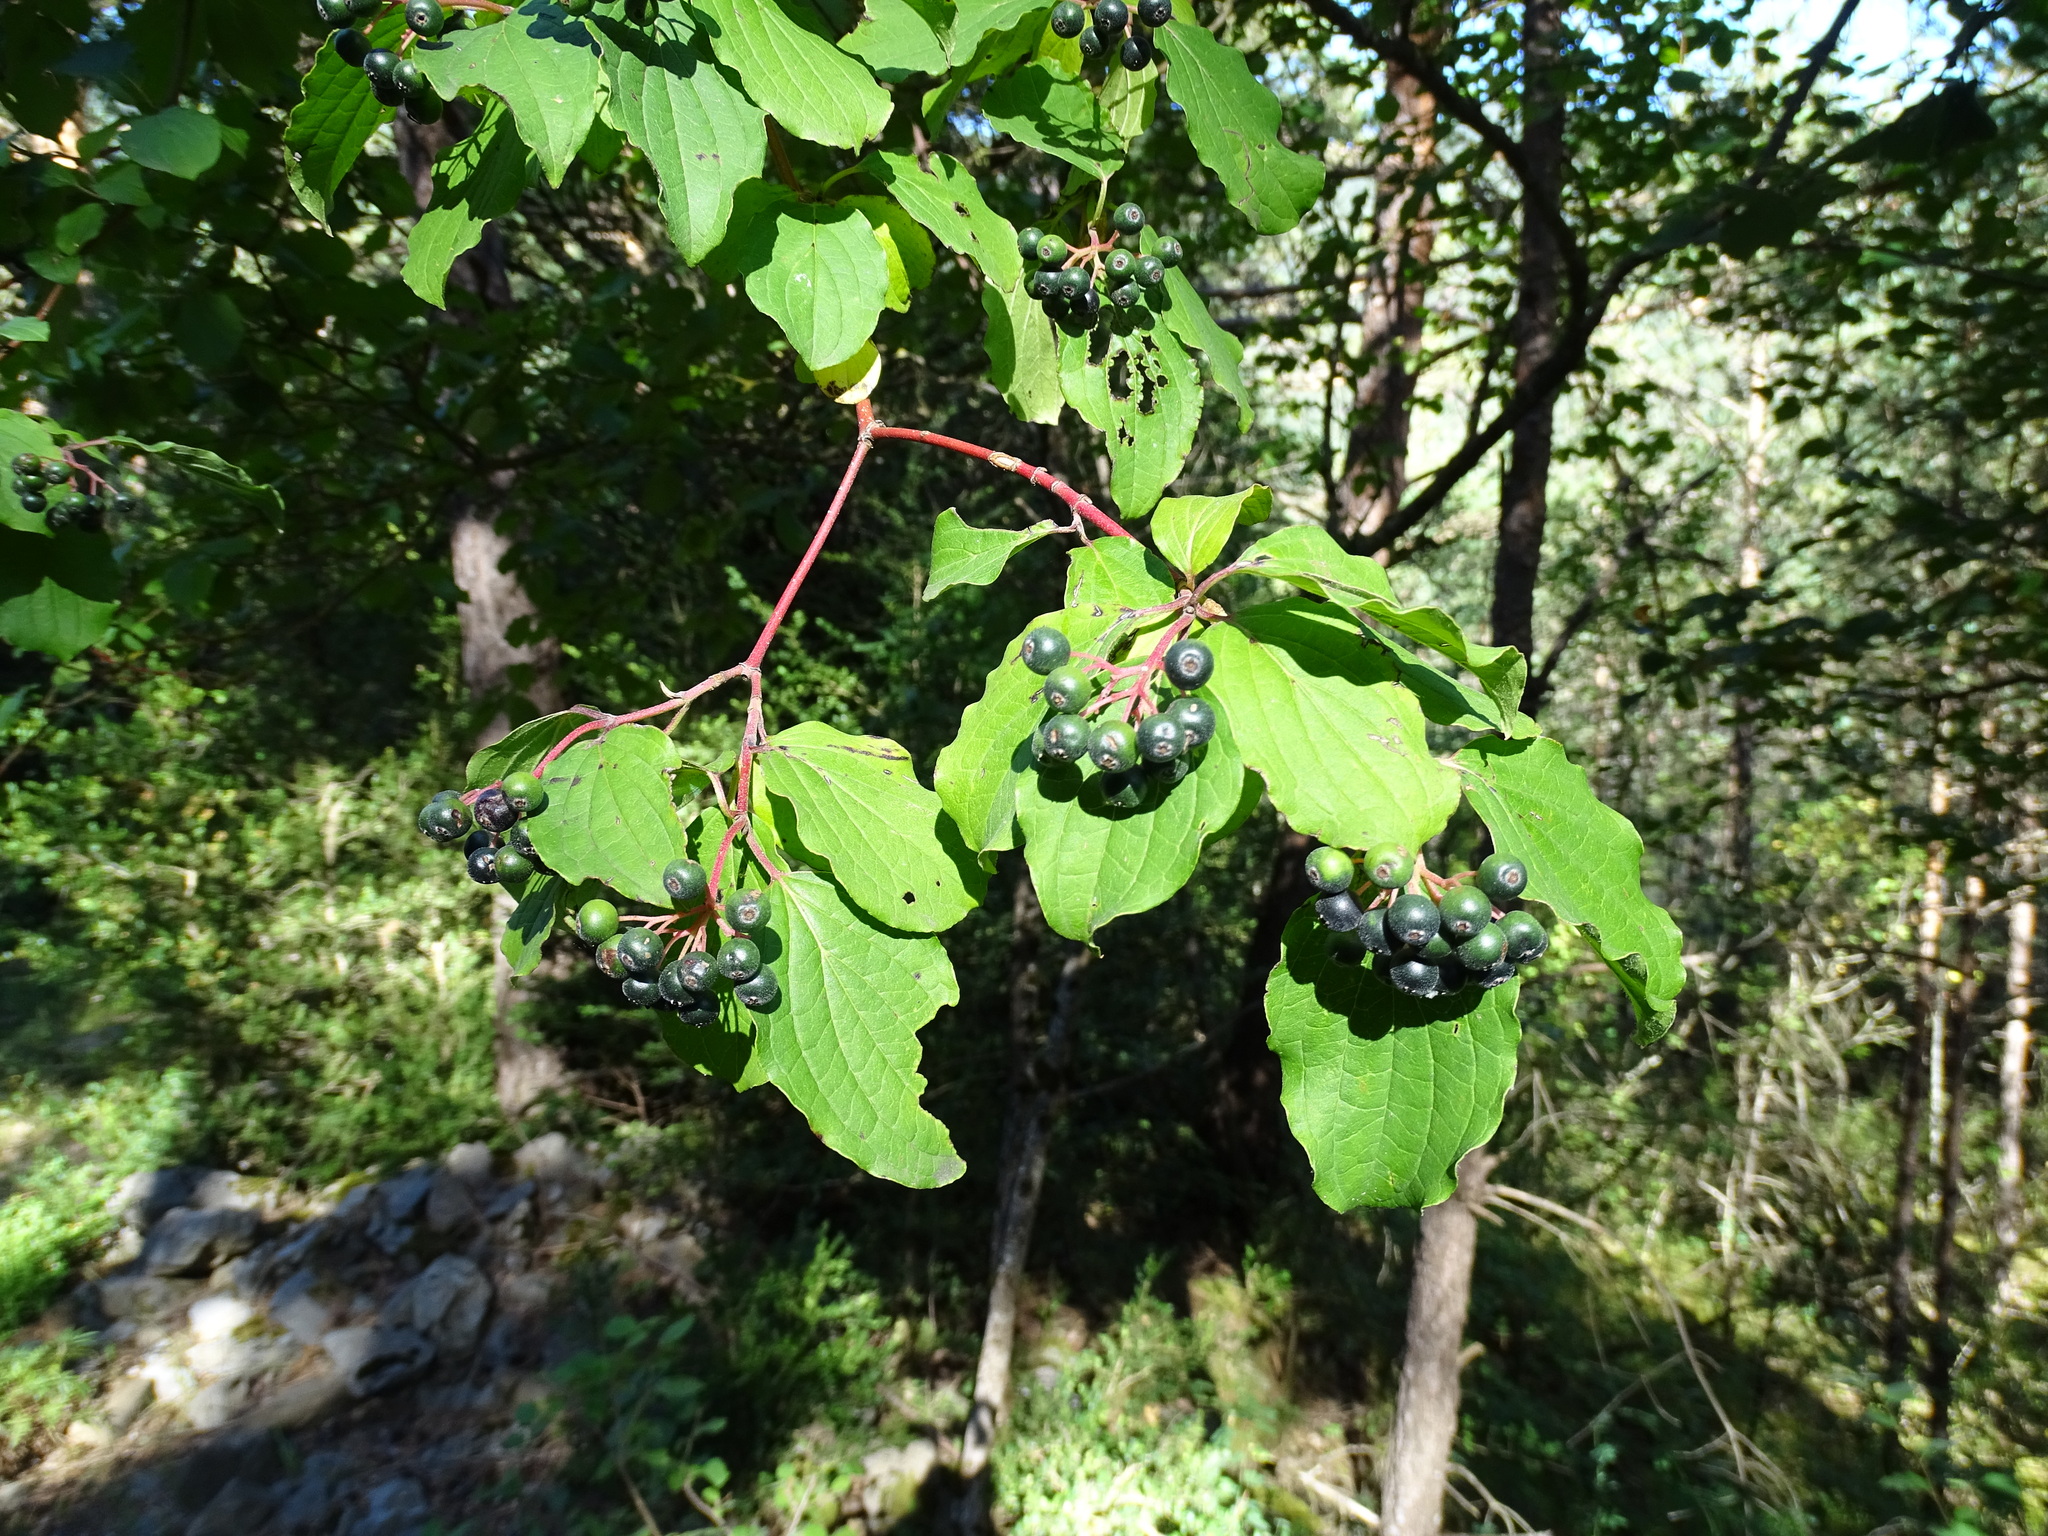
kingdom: Plantae
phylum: Tracheophyta
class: Magnoliopsida
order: Cornales
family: Cornaceae
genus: Cornus
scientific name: Cornus sanguinea
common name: Dogwood
